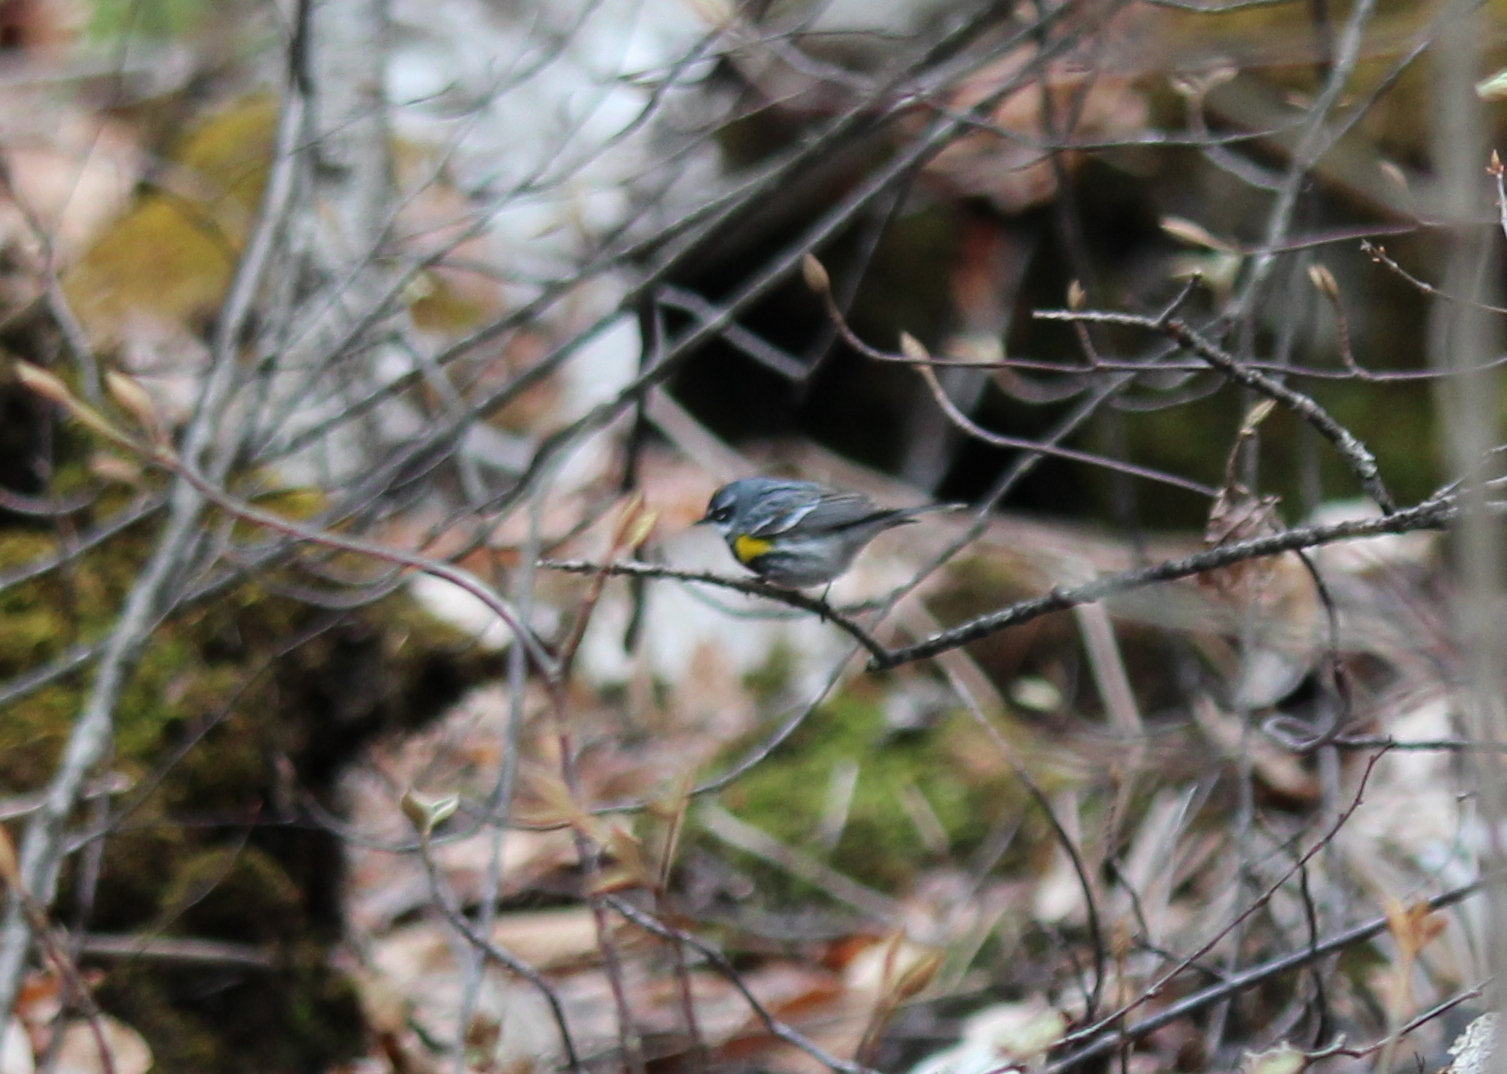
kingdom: Animalia
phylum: Chordata
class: Aves
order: Passeriformes
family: Parulidae
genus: Setophaga
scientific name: Setophaga coronata
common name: Myrtle warbler
